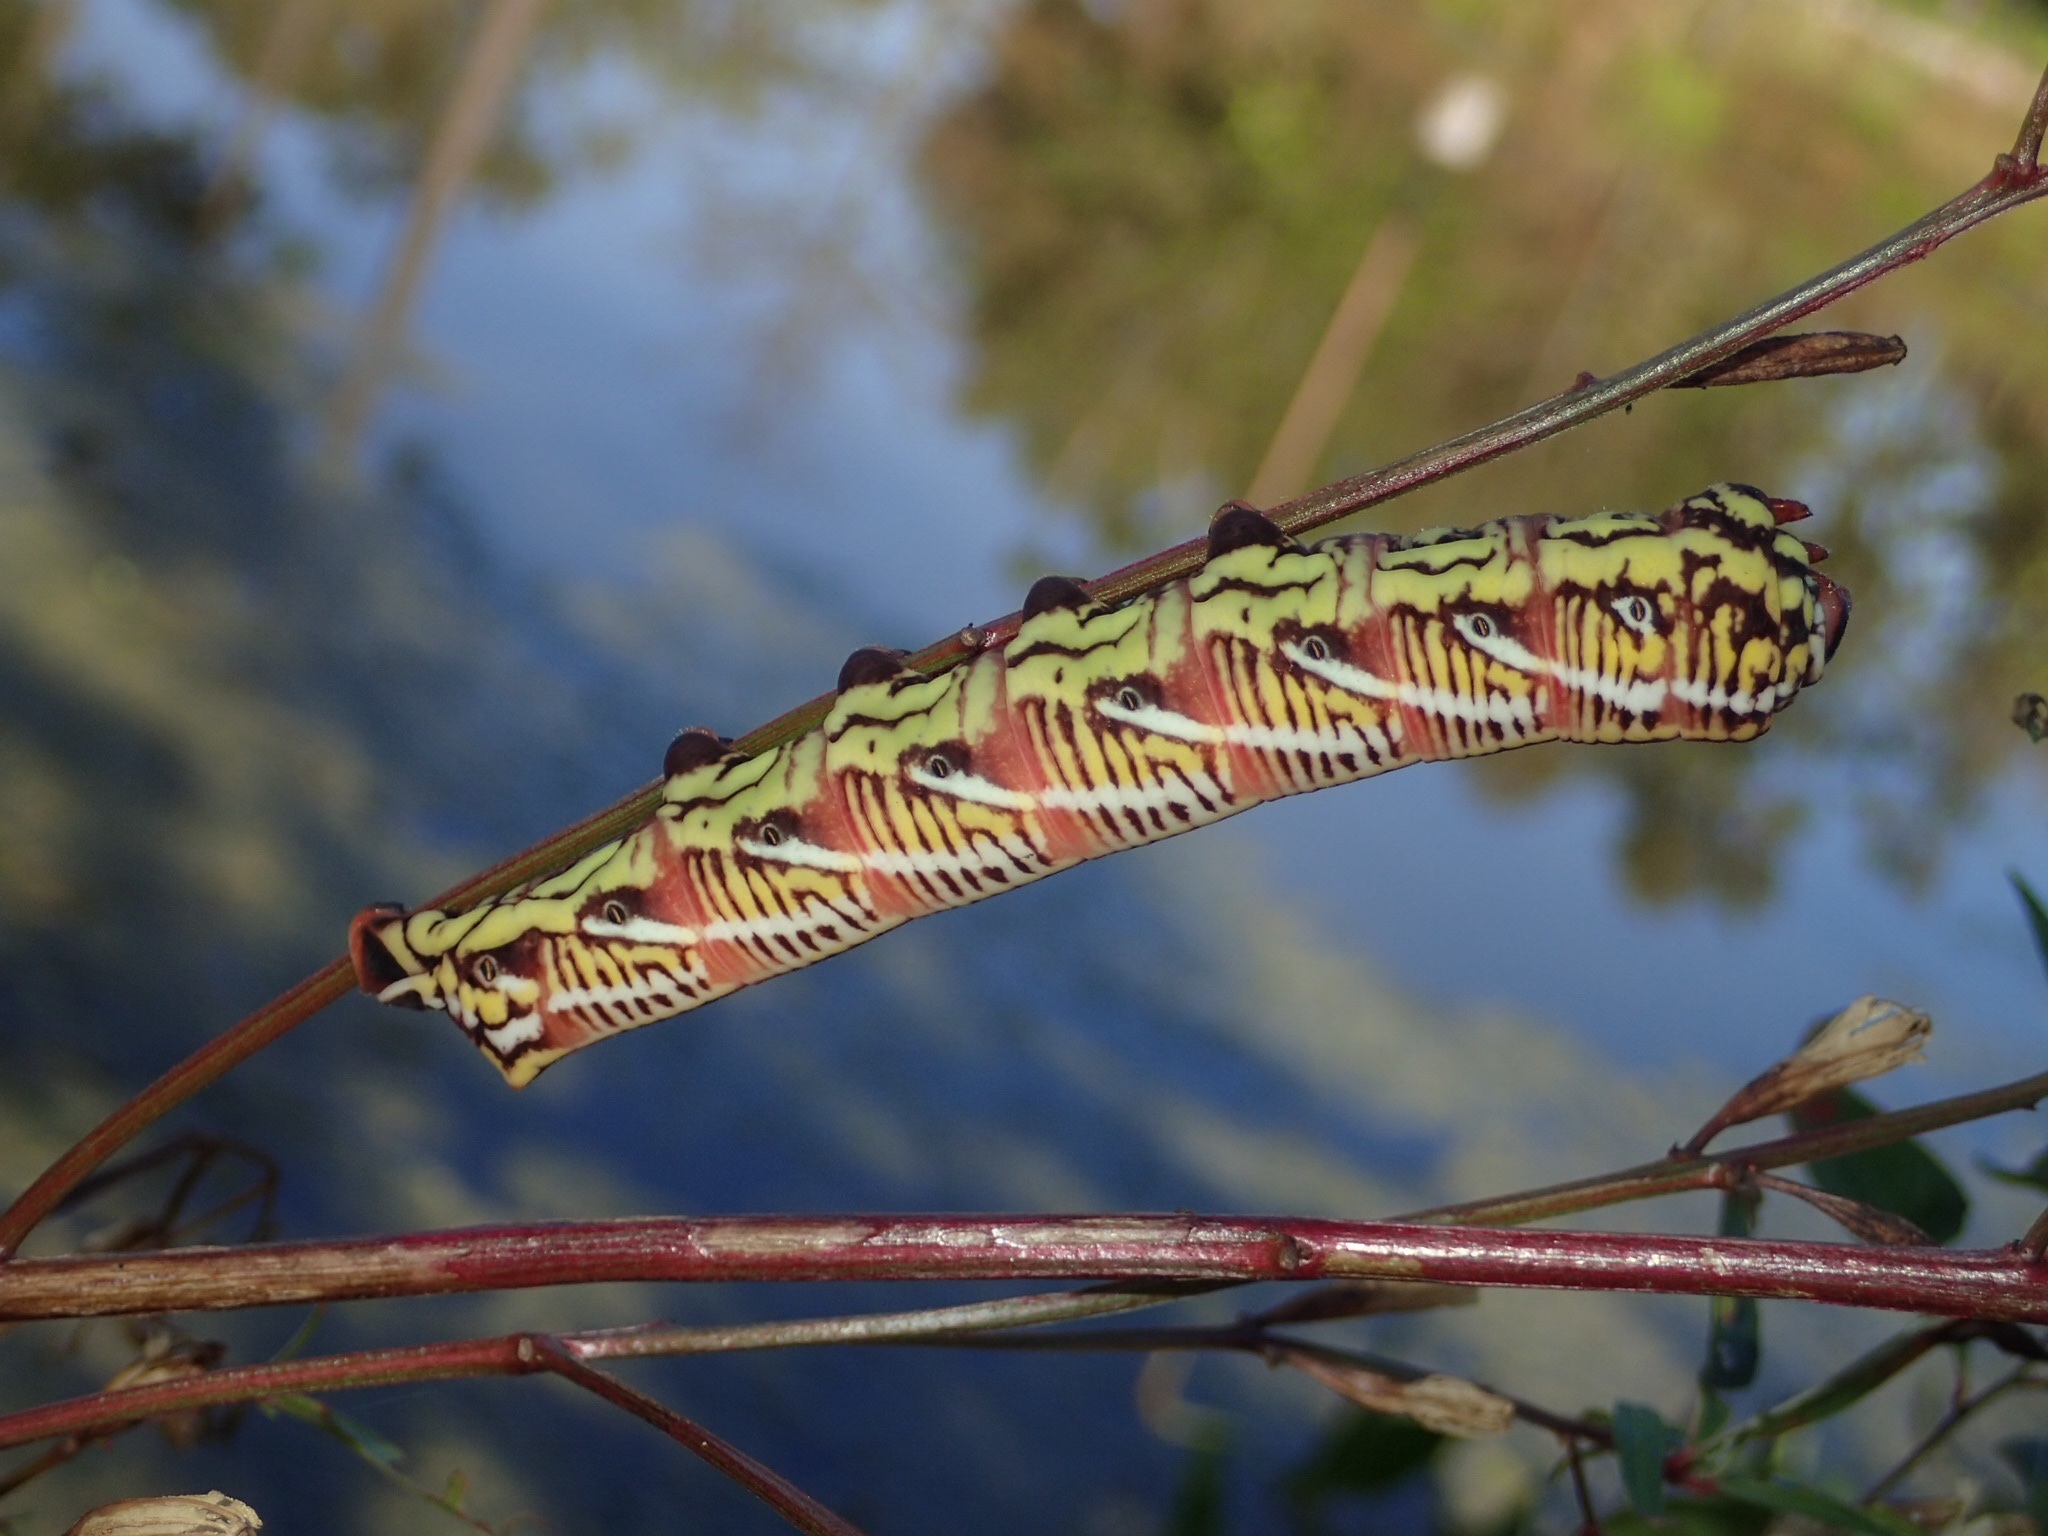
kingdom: Animalia
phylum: Arthropoda
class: Insecta
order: Lepidoptera
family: Sphingidae
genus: Eumorpha
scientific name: Eumorpha fasciatus
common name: Banded sphinx
